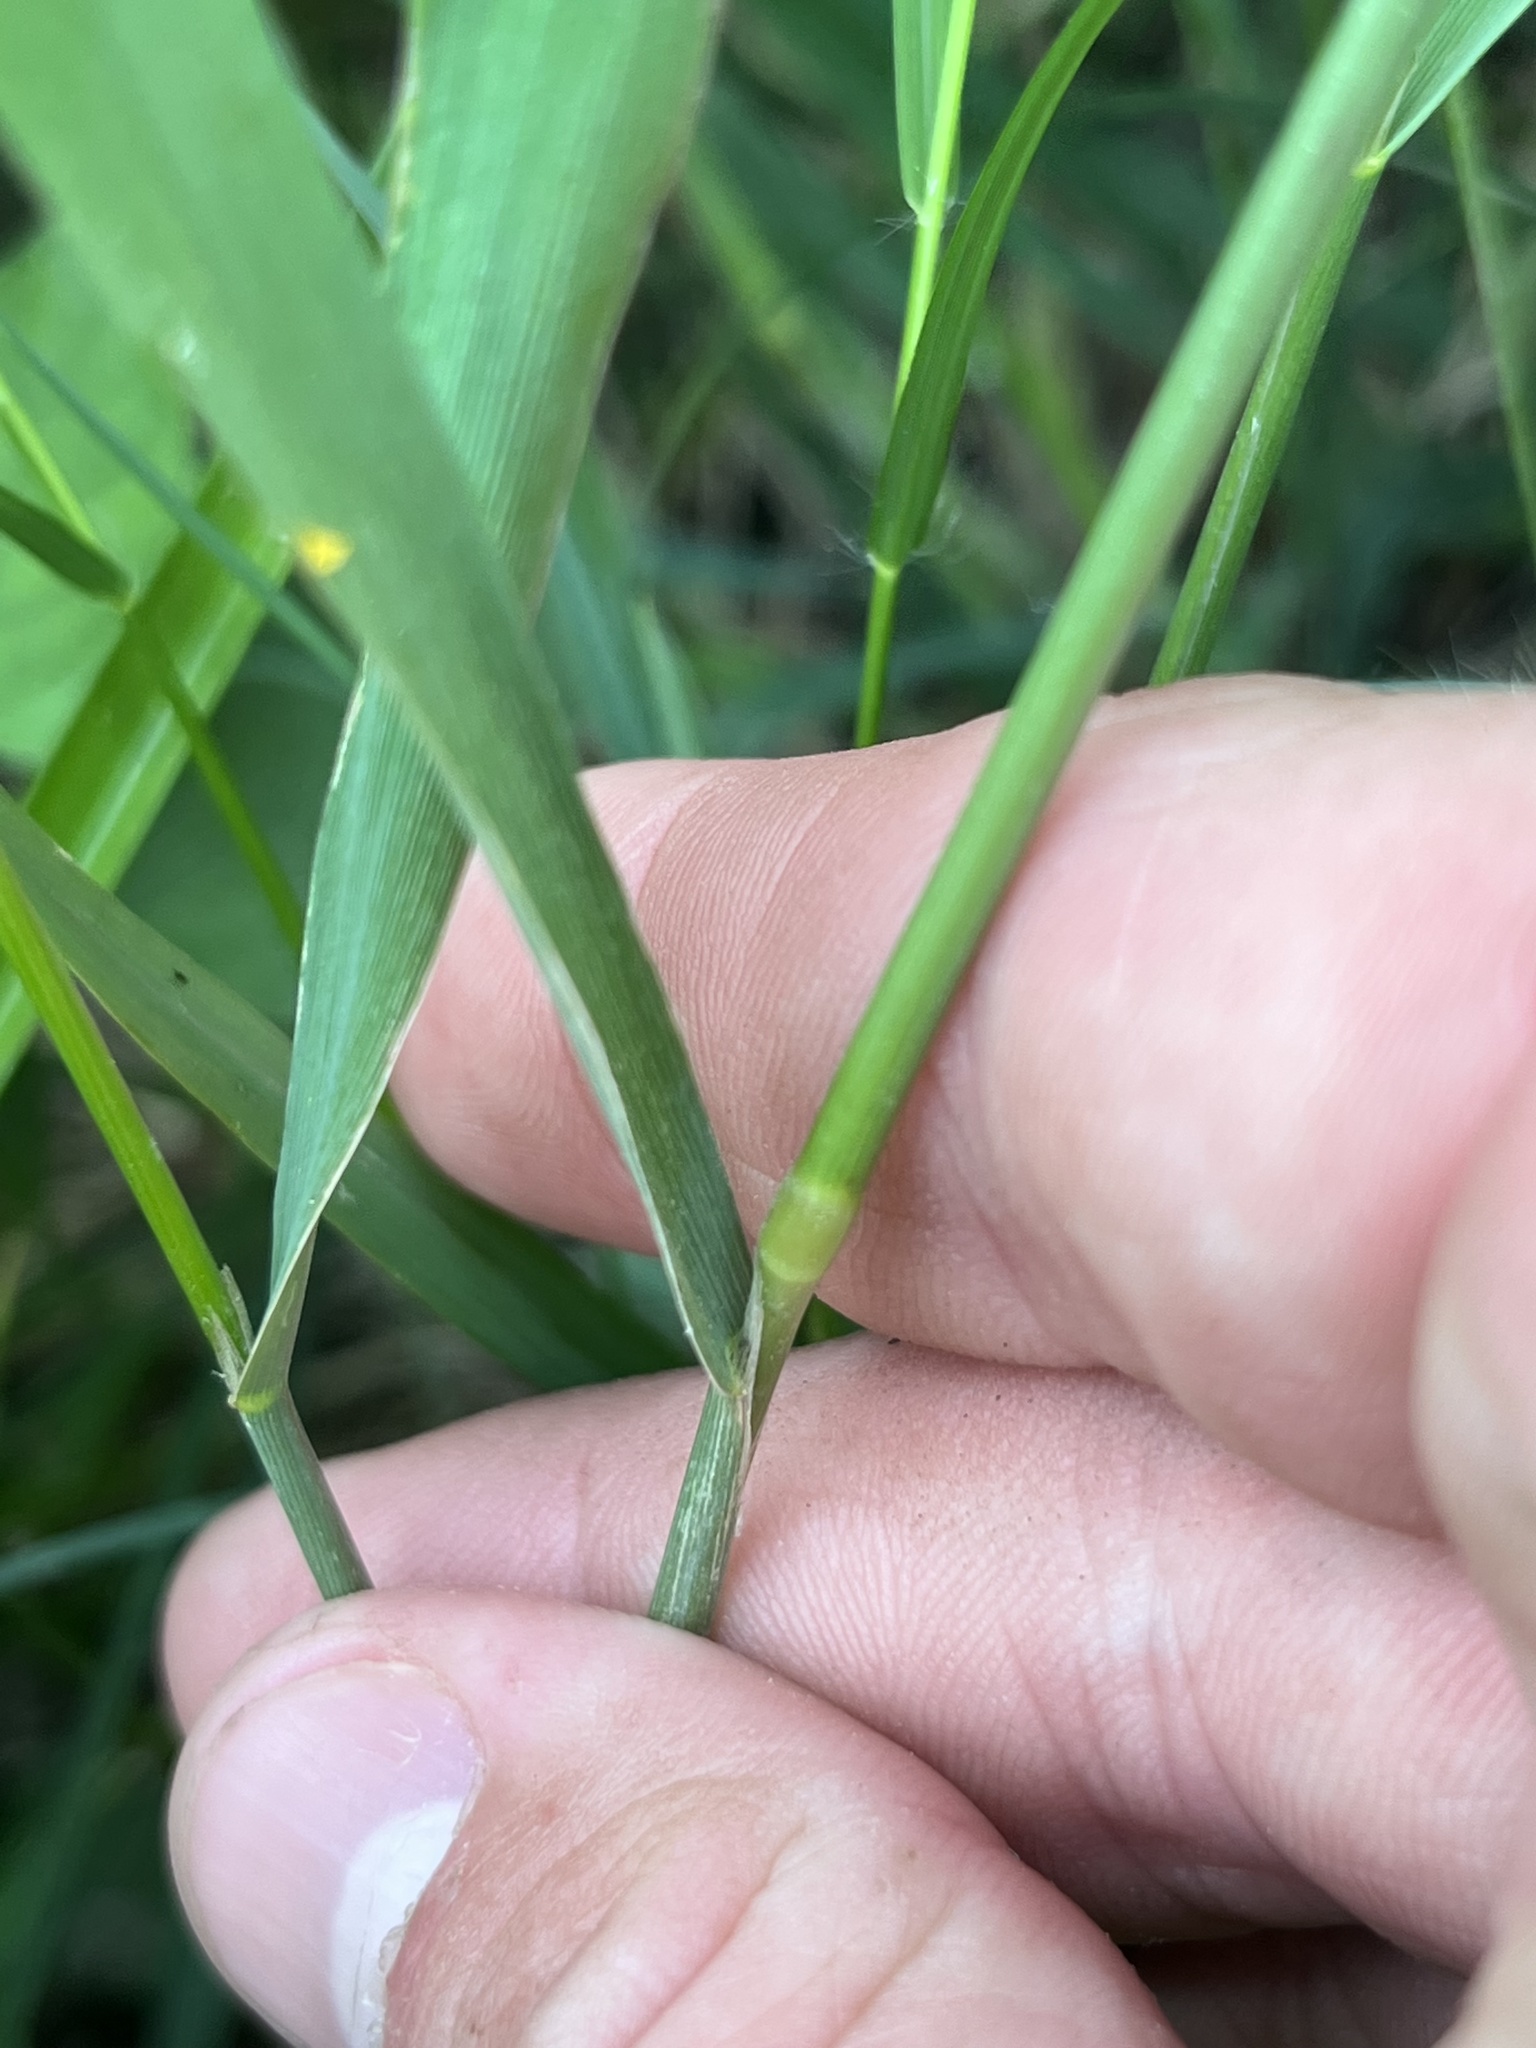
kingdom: Plantae
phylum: Tracheophyta
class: Liliopsida
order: Poales
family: Poaceae
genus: Polypogon
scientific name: Polypogon monspeliensis
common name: Annual rabbitsfoot grass
